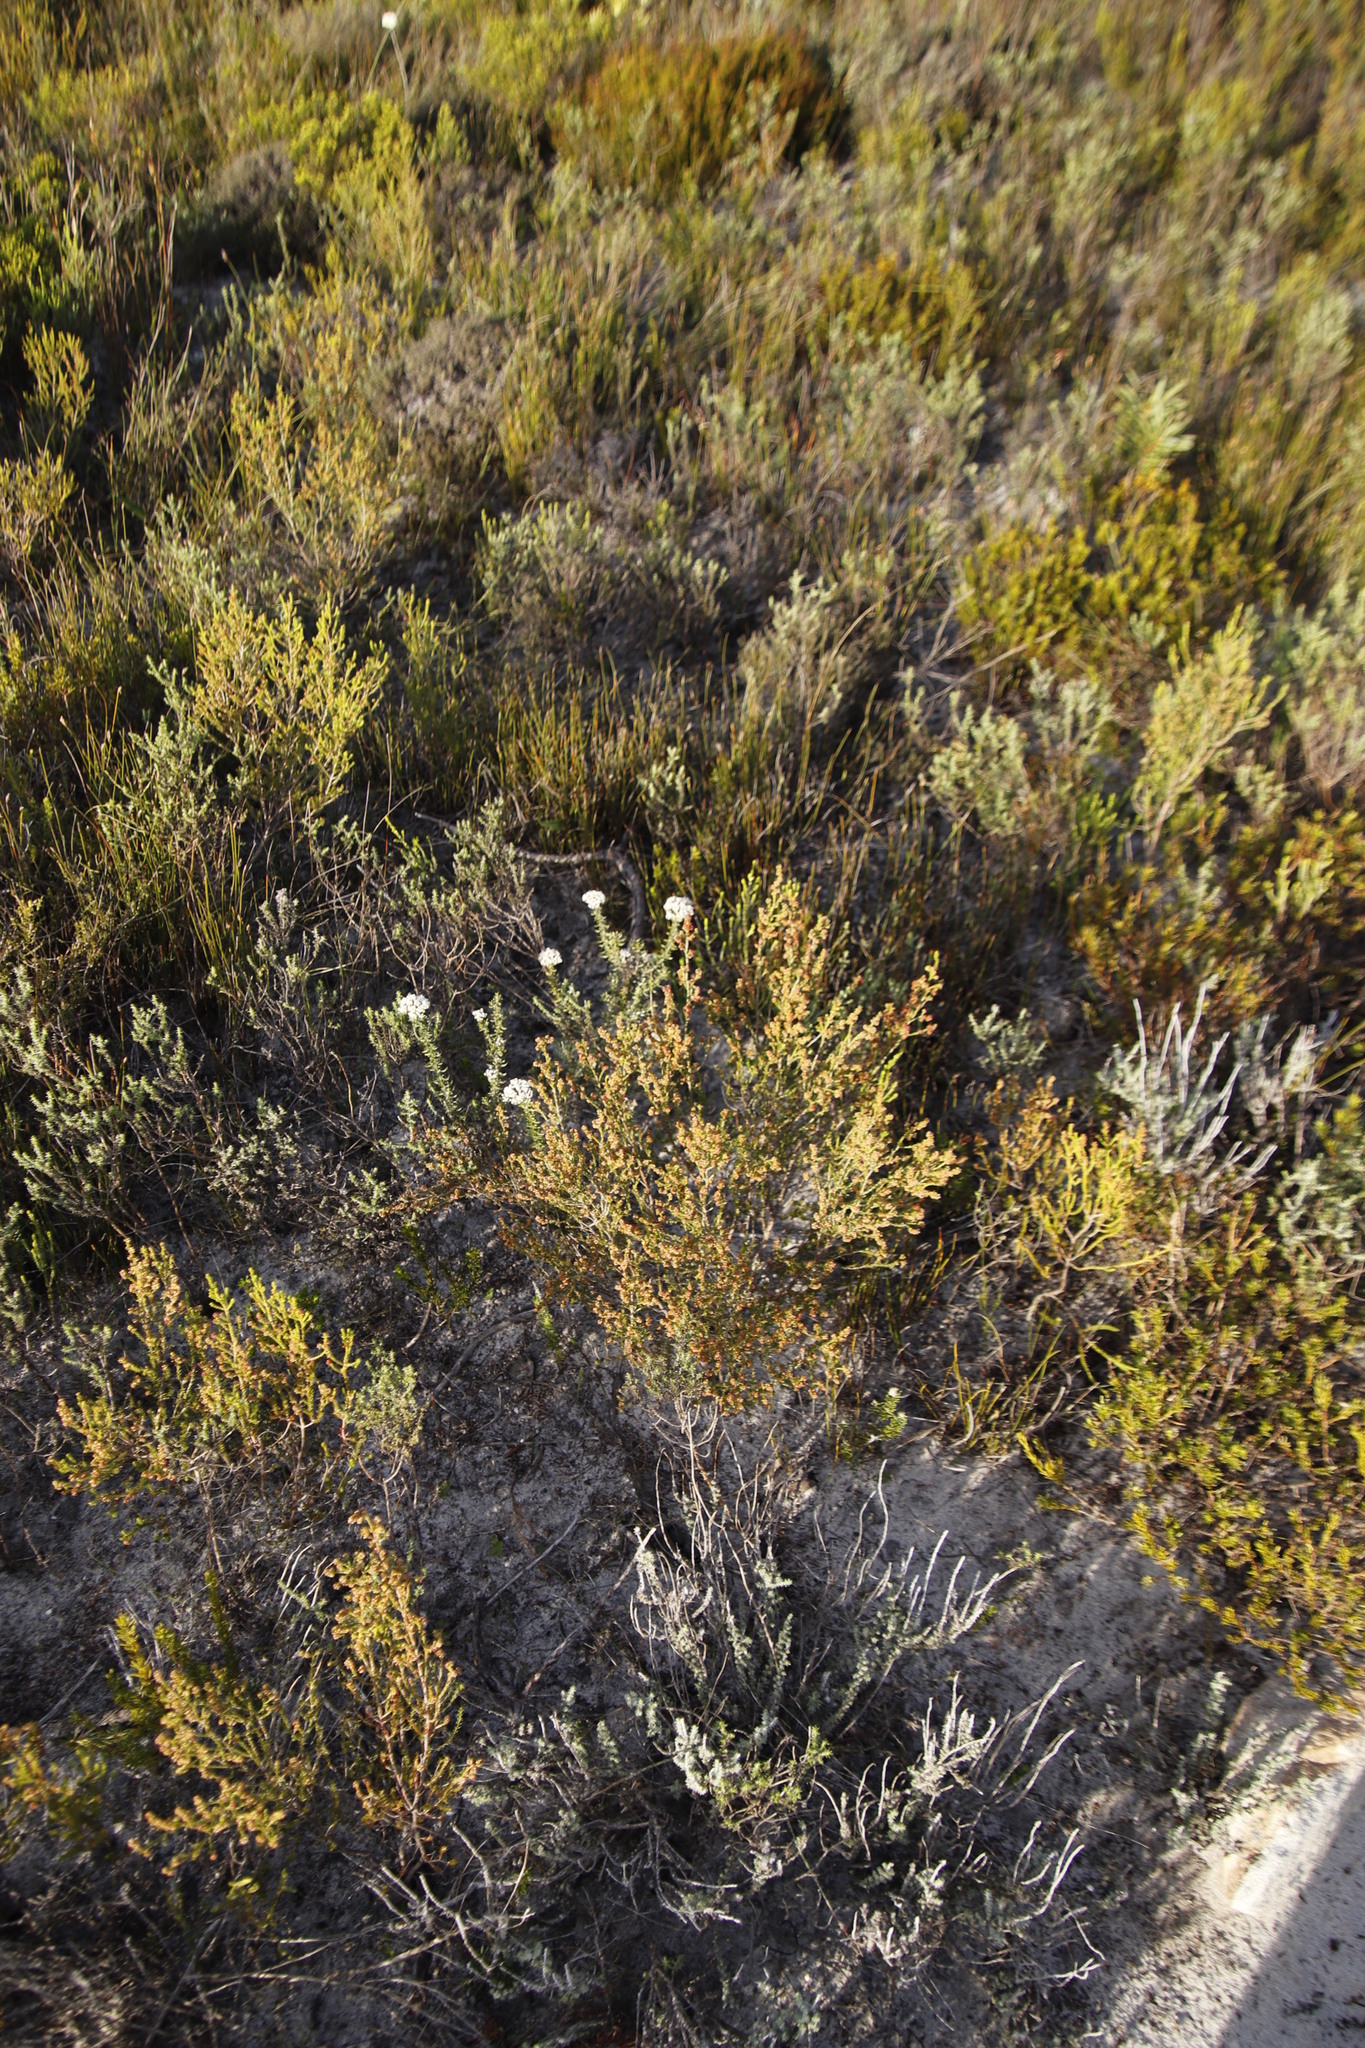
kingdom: Plantae
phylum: Tracheophyta
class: Magnoliopsida
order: Ericales
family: Ericaceae
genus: Erica
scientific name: Erica axillaris
